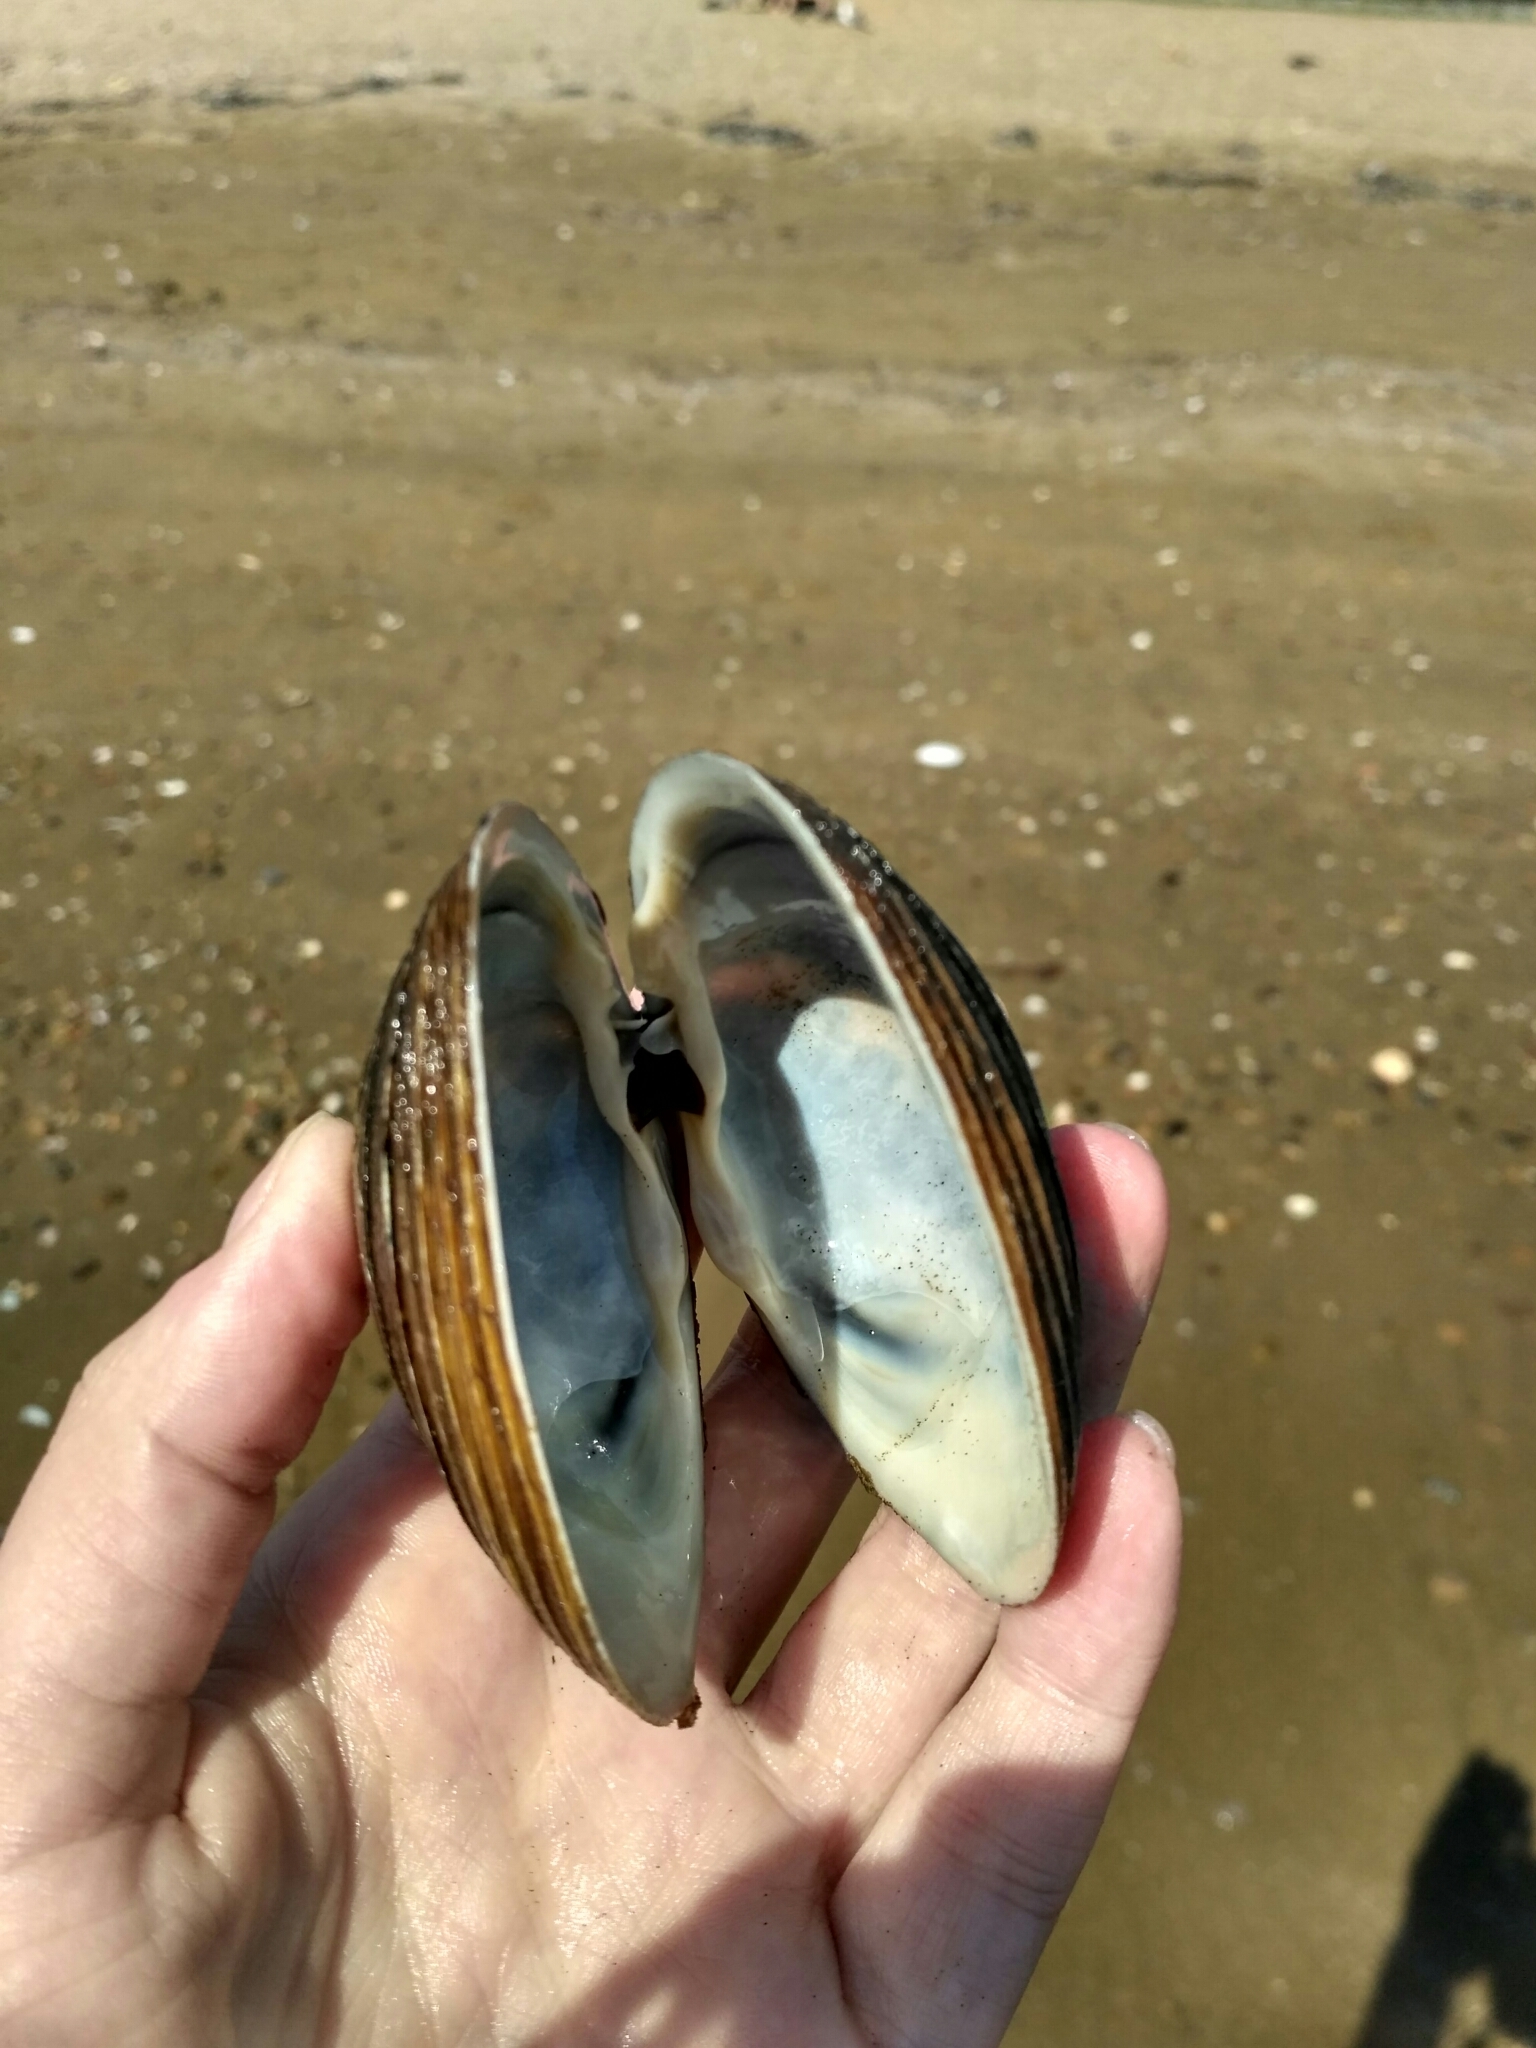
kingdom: Animalia
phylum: Mollusca
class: Bivalvia
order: Venerida
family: Mactridae
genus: Spisula
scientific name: Spisula sachalinensis
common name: Sakhalin surf clam
